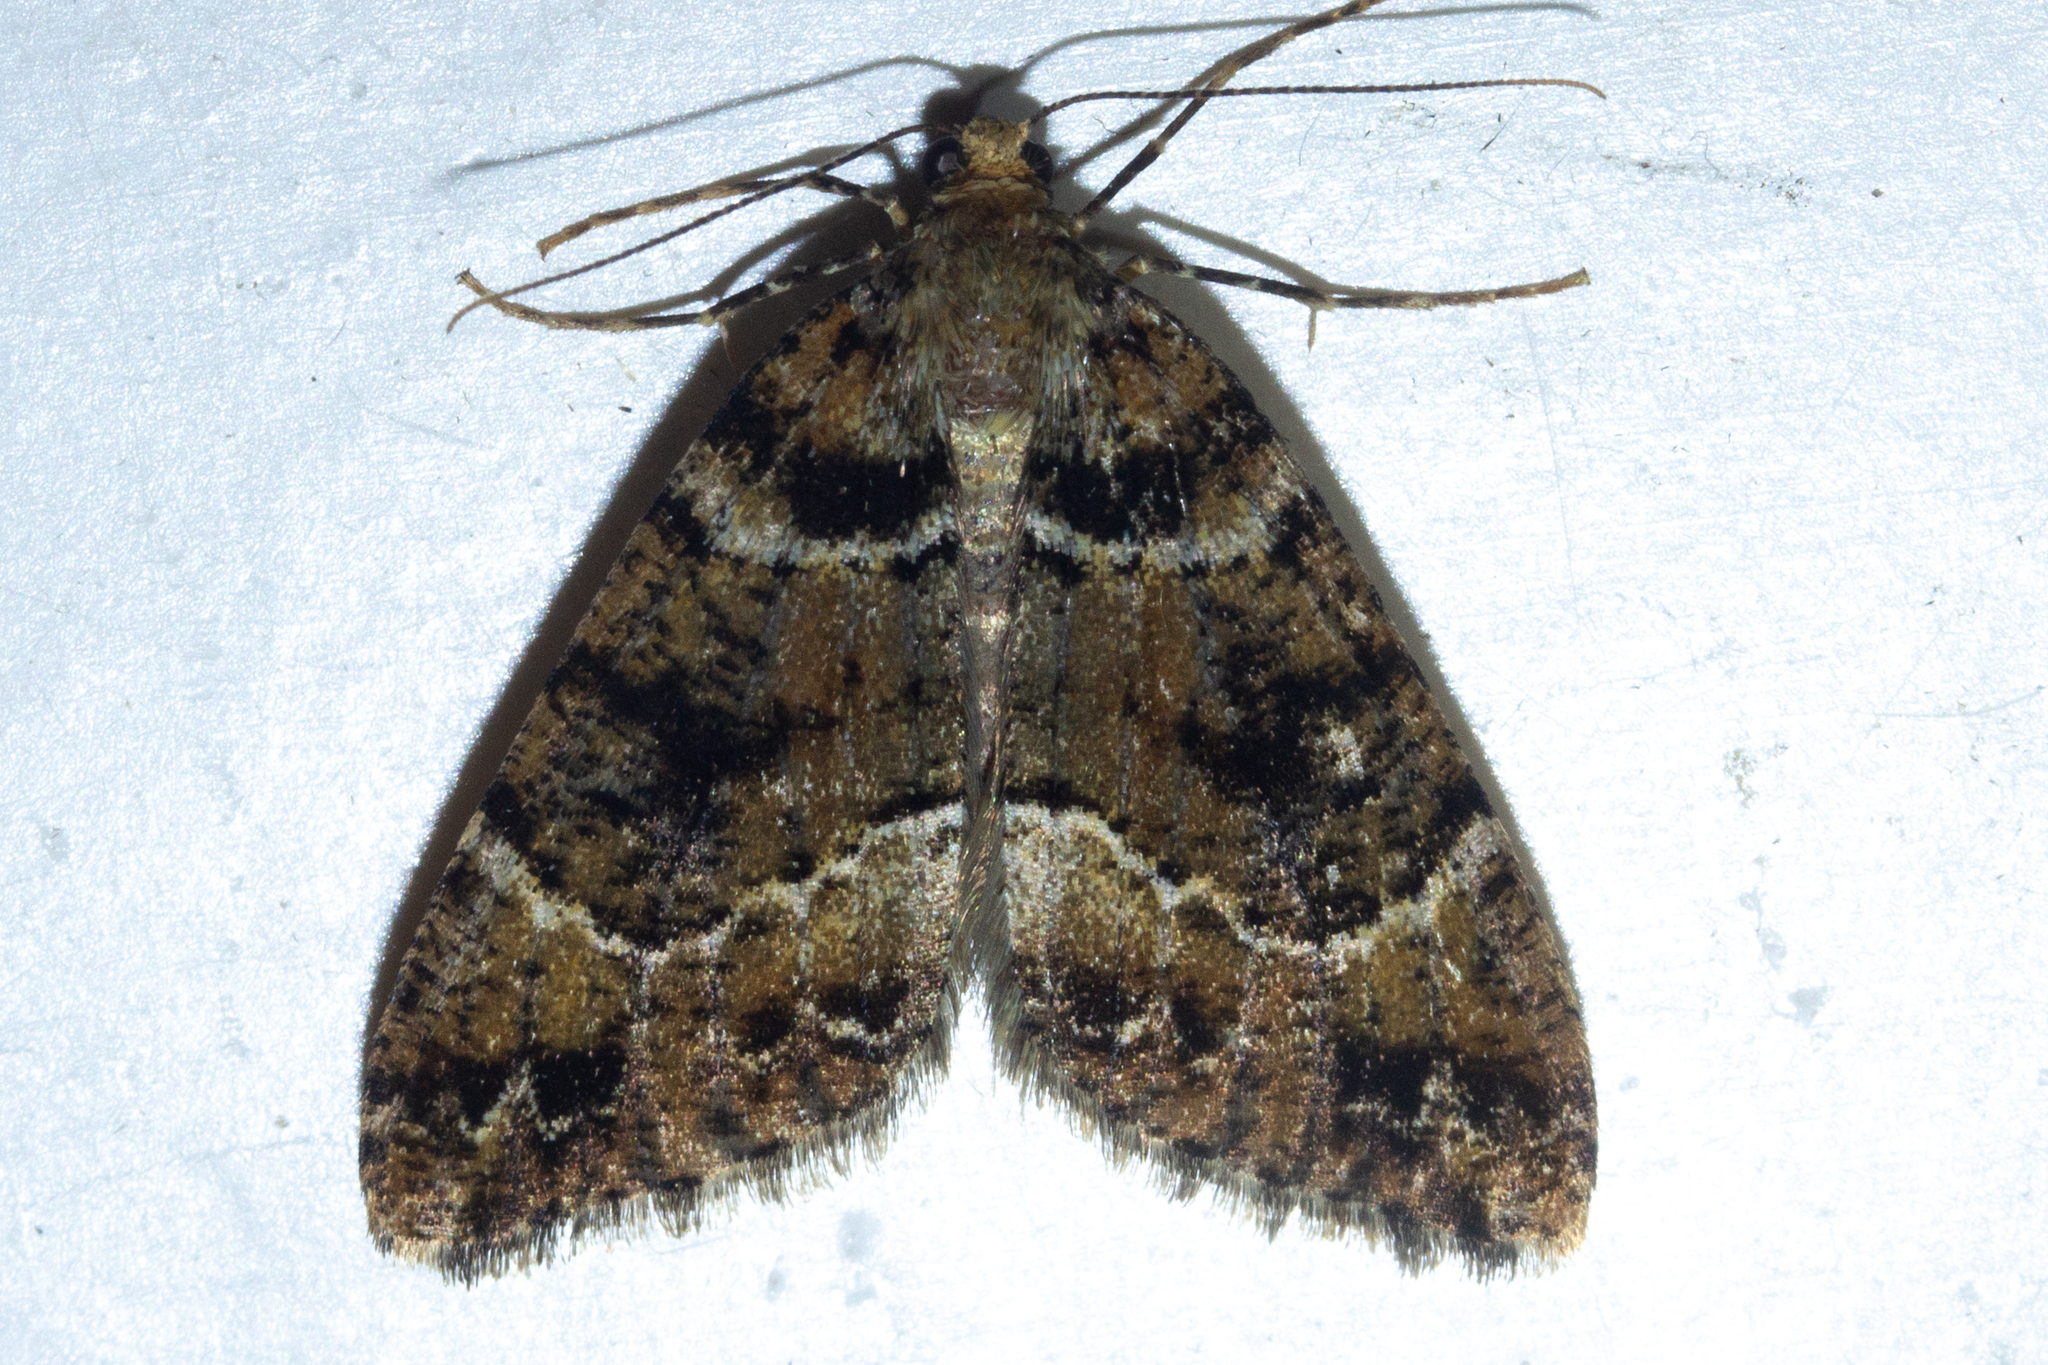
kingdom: Animalia
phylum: Arthropoda
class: Insecta
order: Lepidoptera
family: Geometridae
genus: Pseudocoremia
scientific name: Pseudocoremia productata
